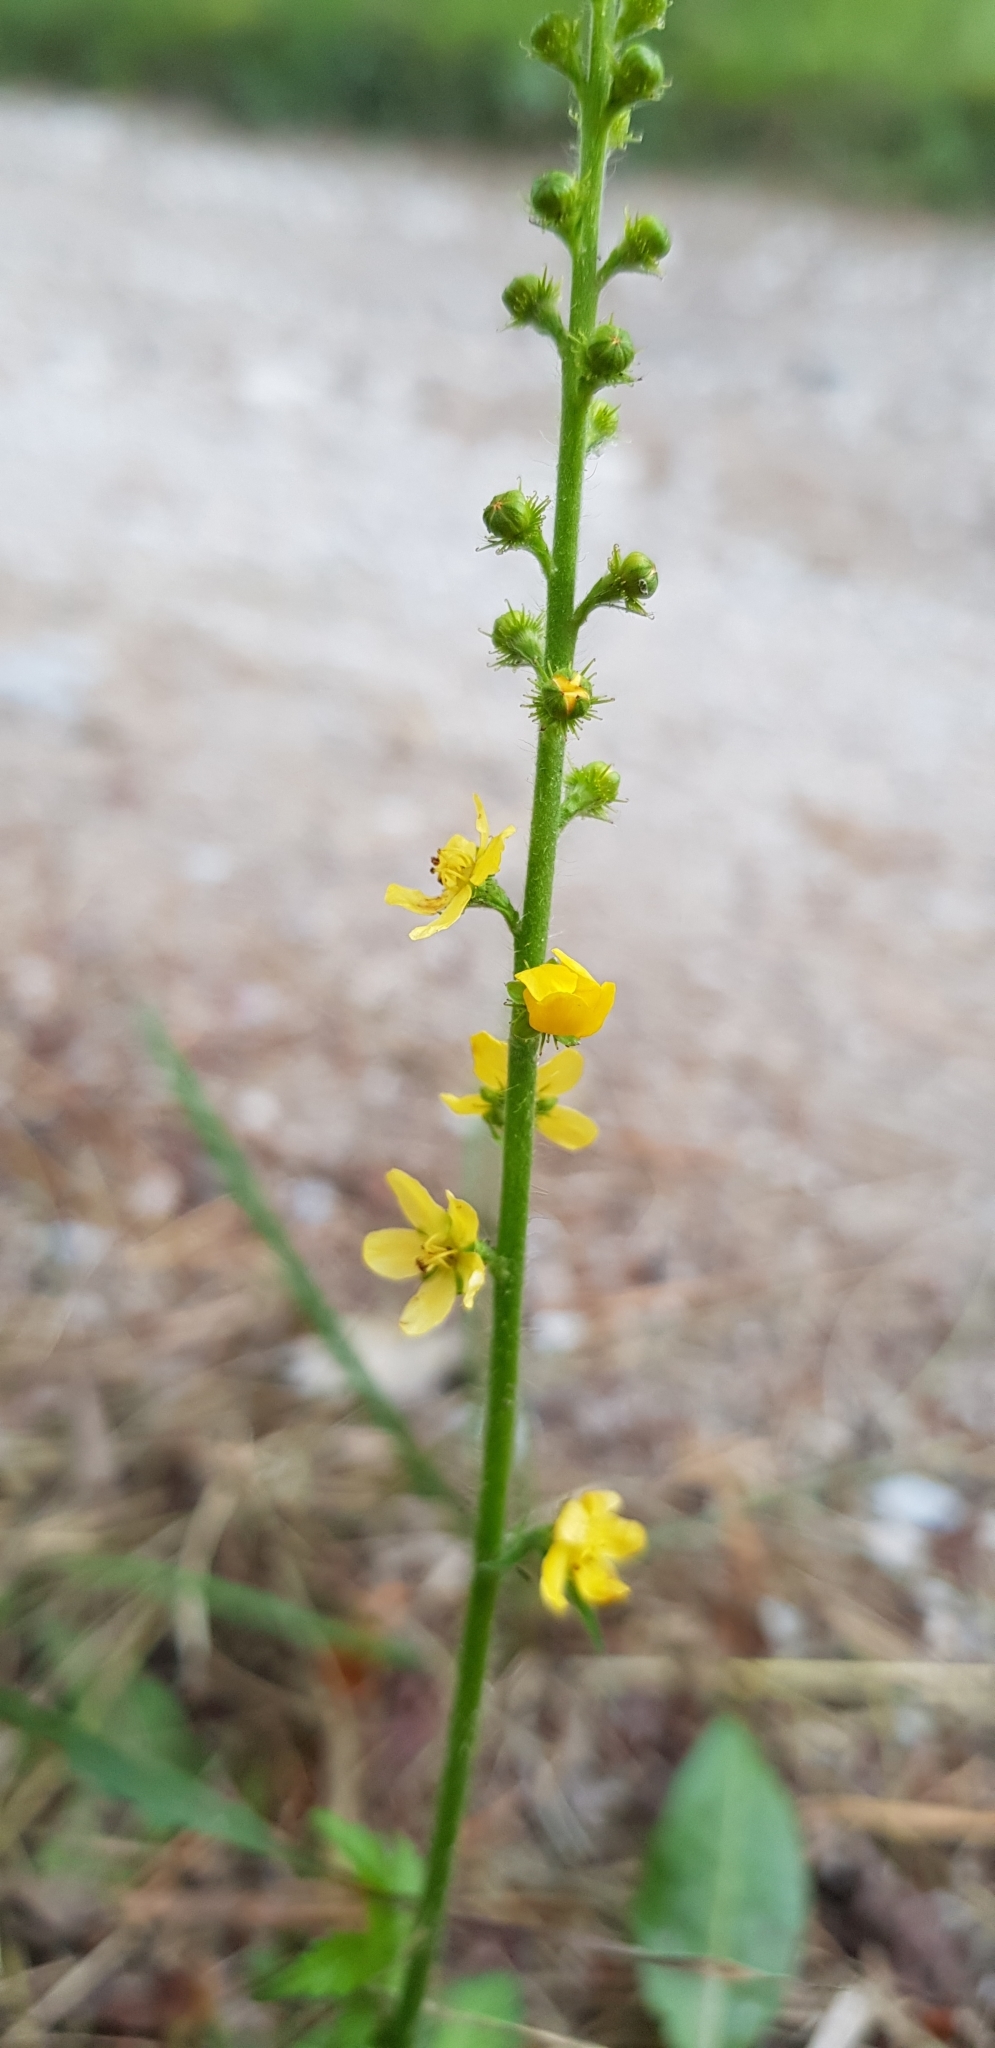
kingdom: Plantae
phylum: Tracheophyta
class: Magnoliopsida
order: Rosales
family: Rosaceae
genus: Agrimonia
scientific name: Agrimonia eupatoria
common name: Agrimony
